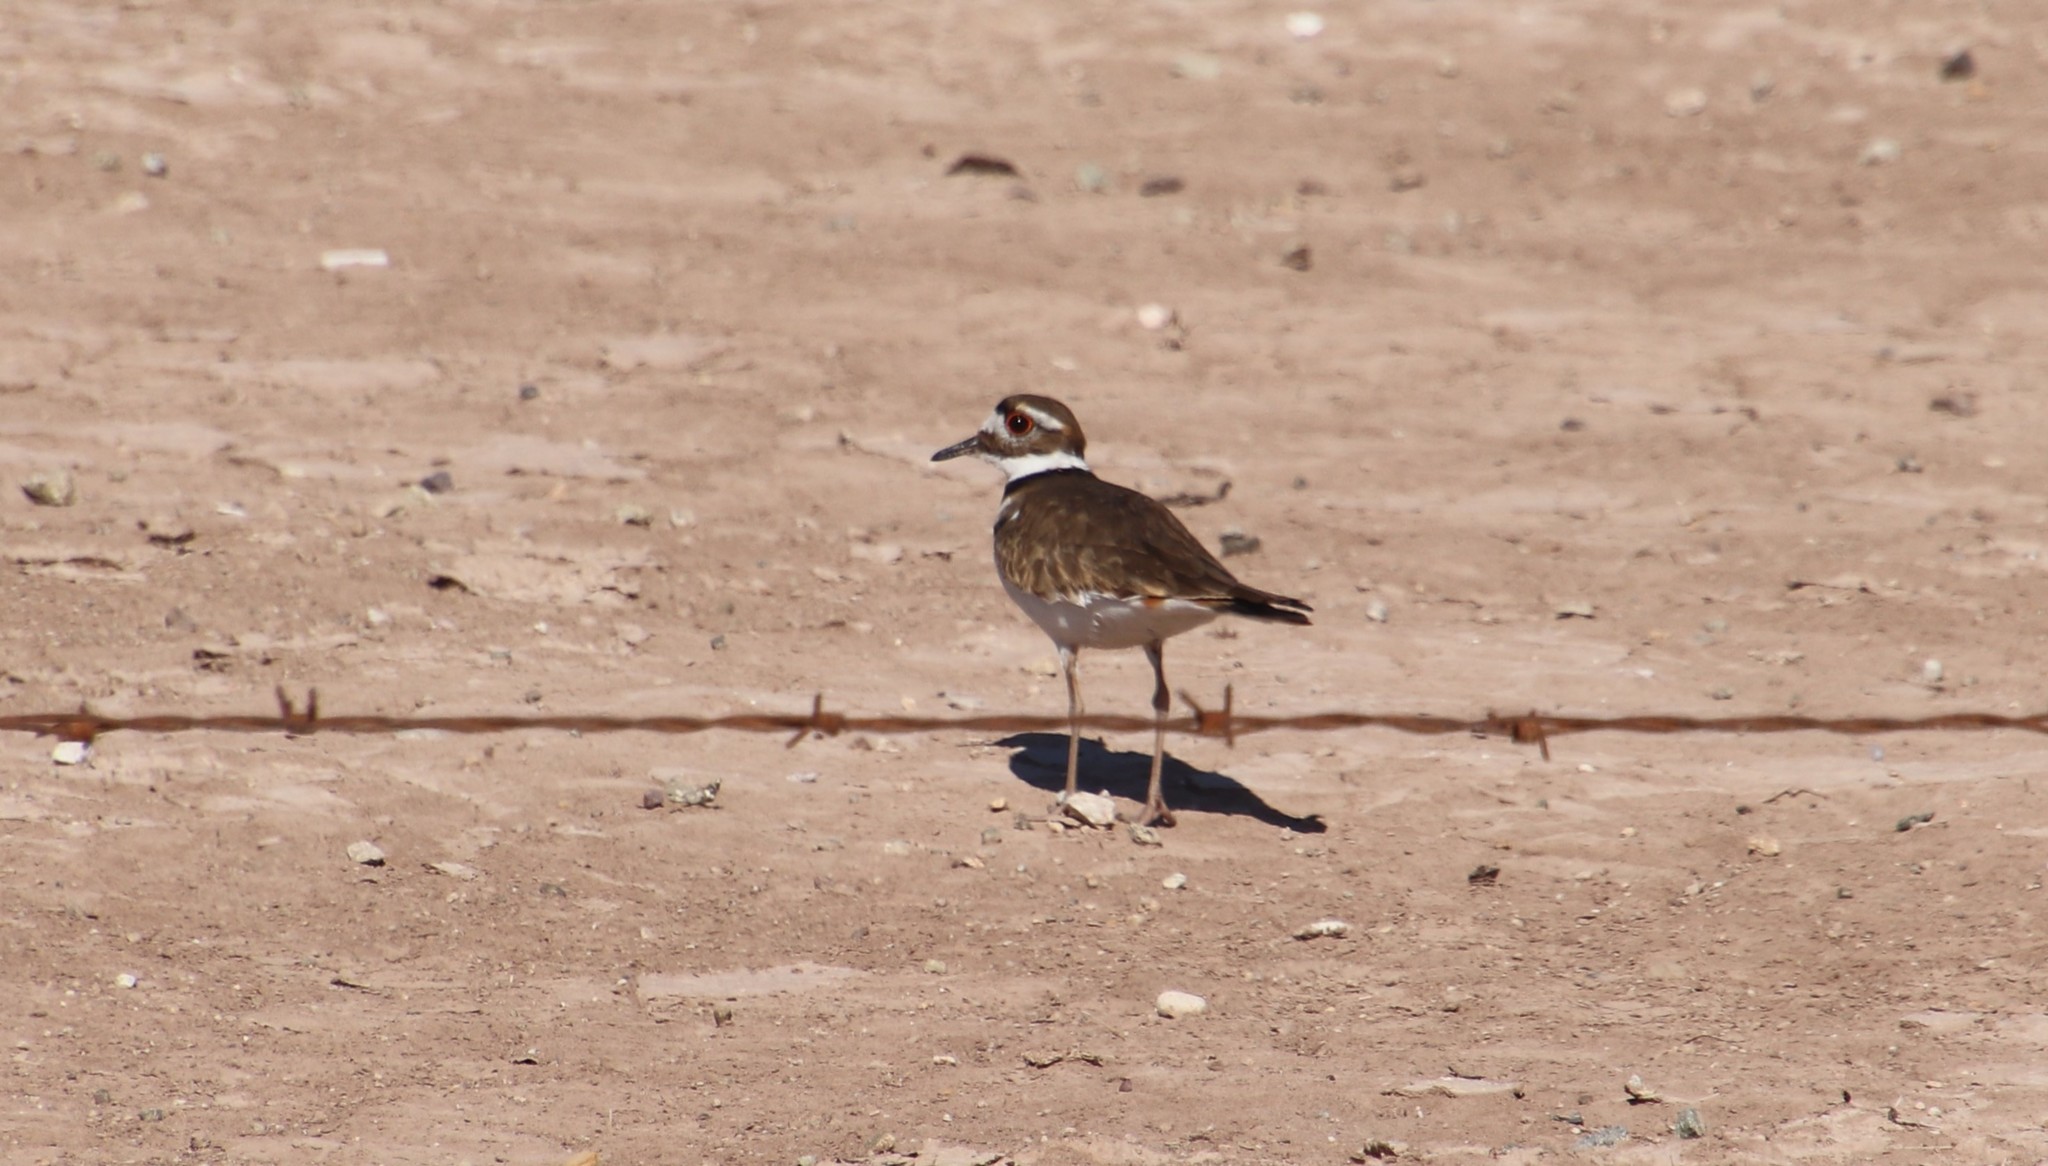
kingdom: Animalia
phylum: Chordata
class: Aves
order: Charadriiformes
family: Charadriidae
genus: Charadrius
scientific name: Charadrius vociferus
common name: Killdeer
